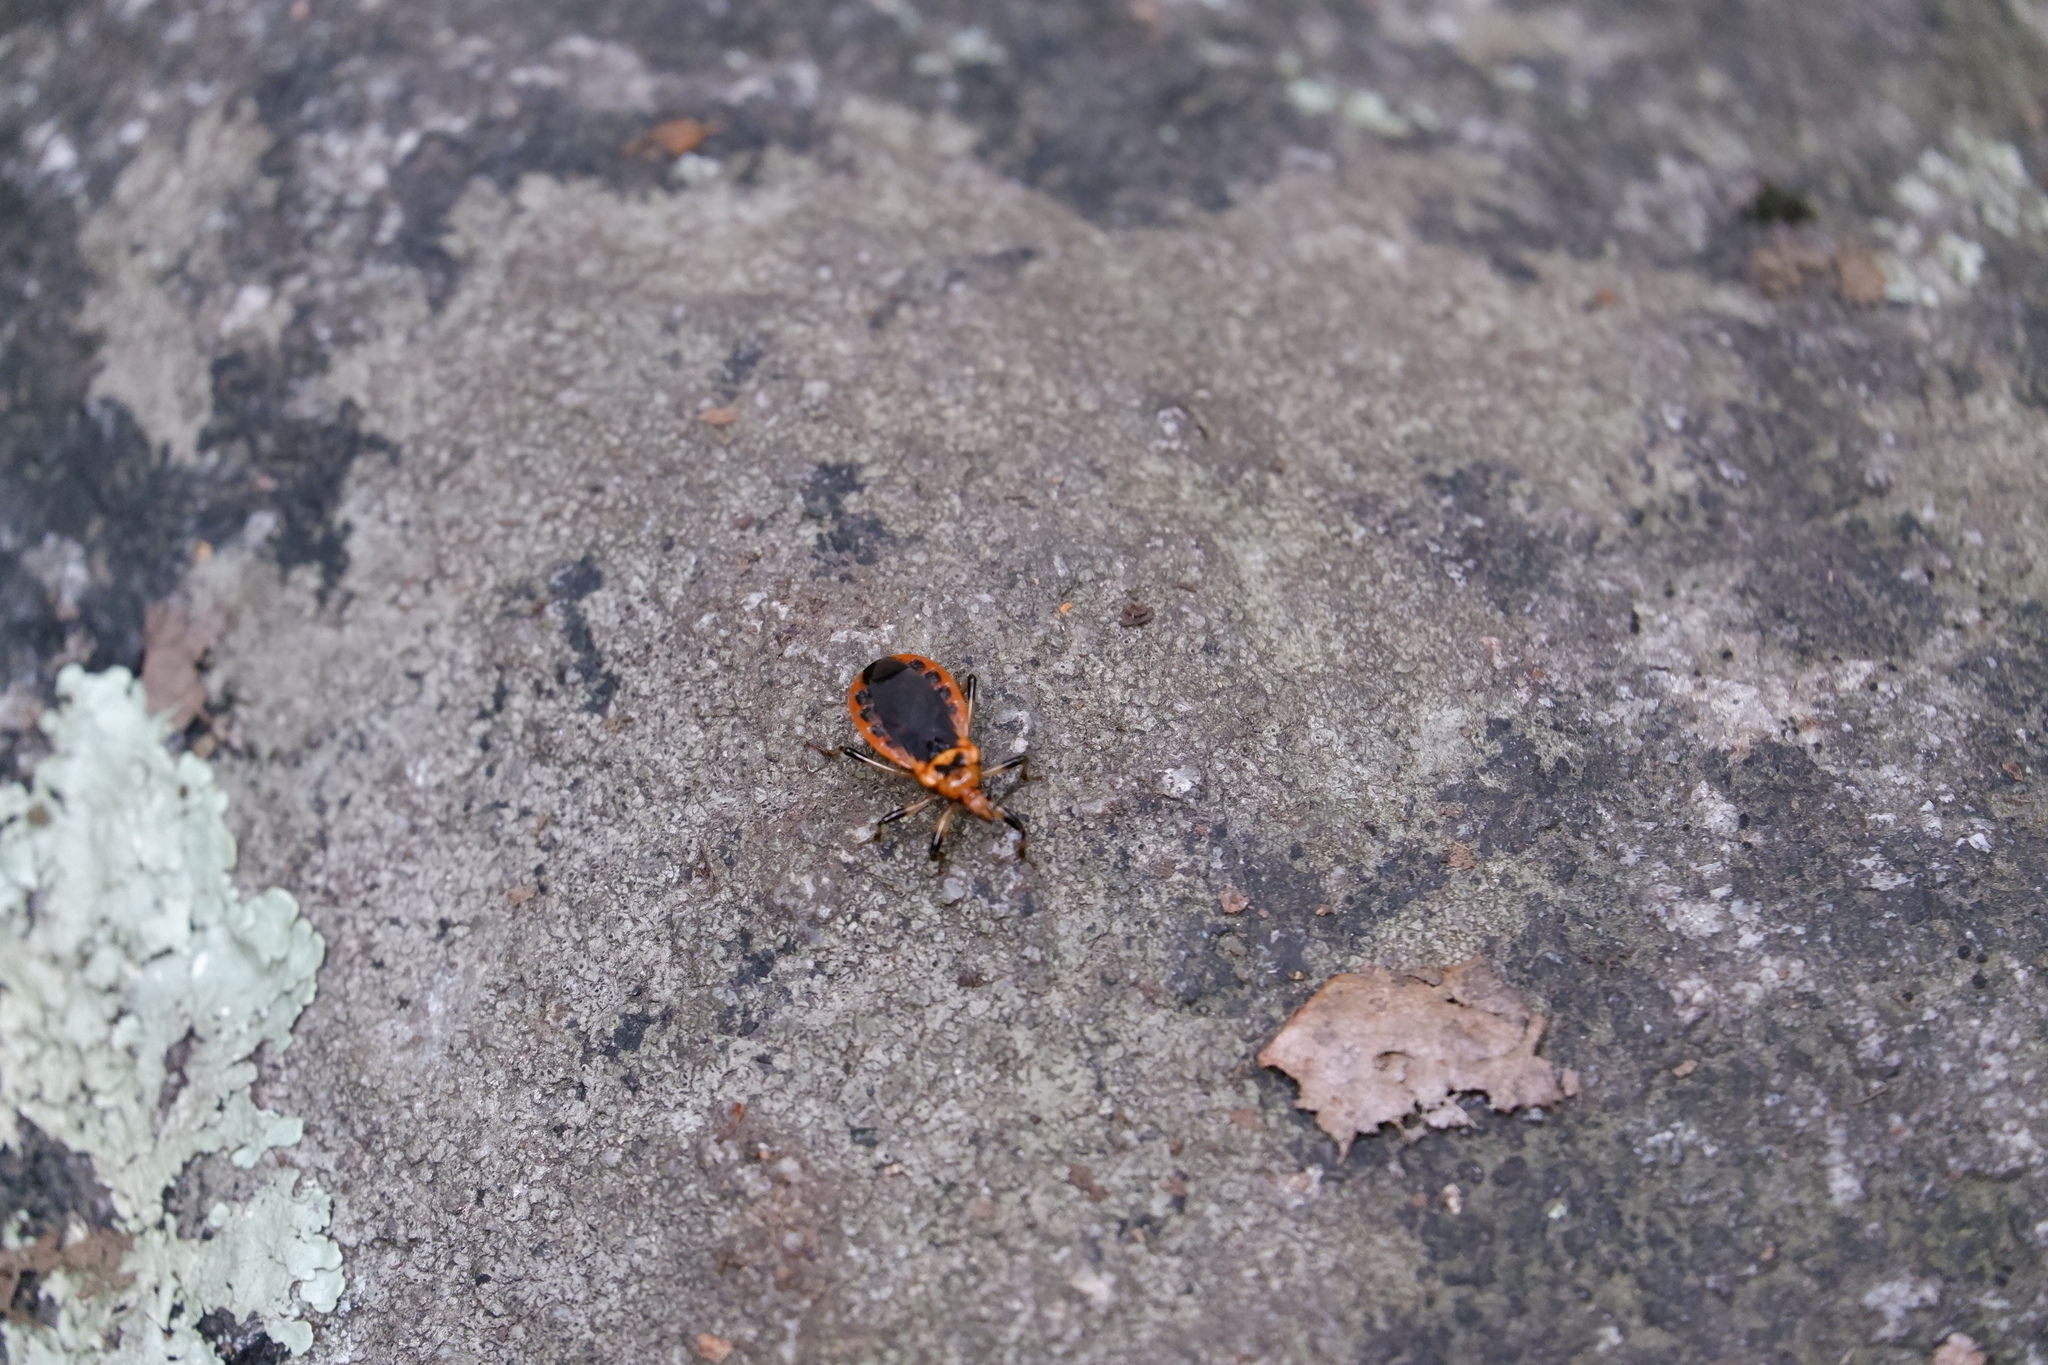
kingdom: Animalia
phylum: Arthropoda
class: Insecta
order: Hemiptera
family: Reduviidae
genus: Rhiginia
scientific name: Rhiginia cruciata
